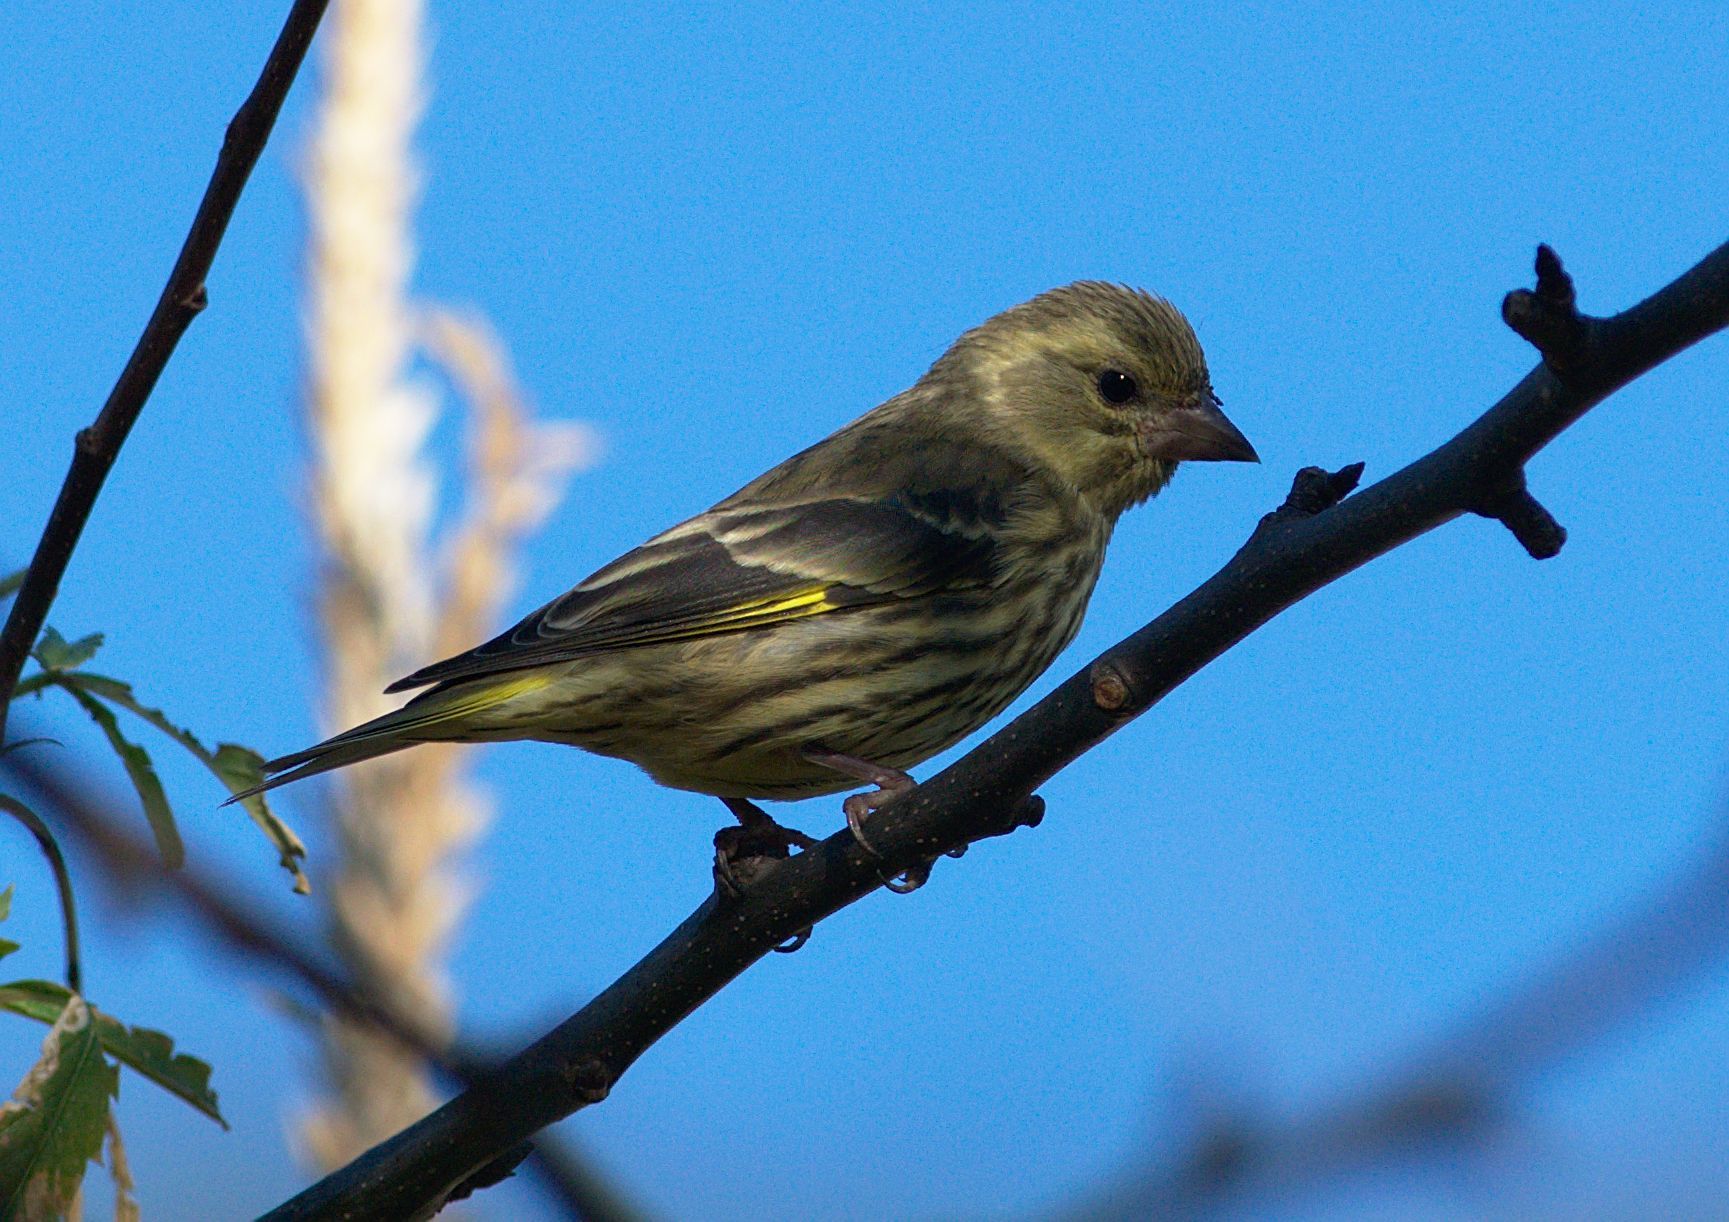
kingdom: Animalia
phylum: Chordata
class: Aves
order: Passeriformes
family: Fringillidae
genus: Chloris
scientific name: Chloris spinoides
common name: Yellow-breasted greenfinch
